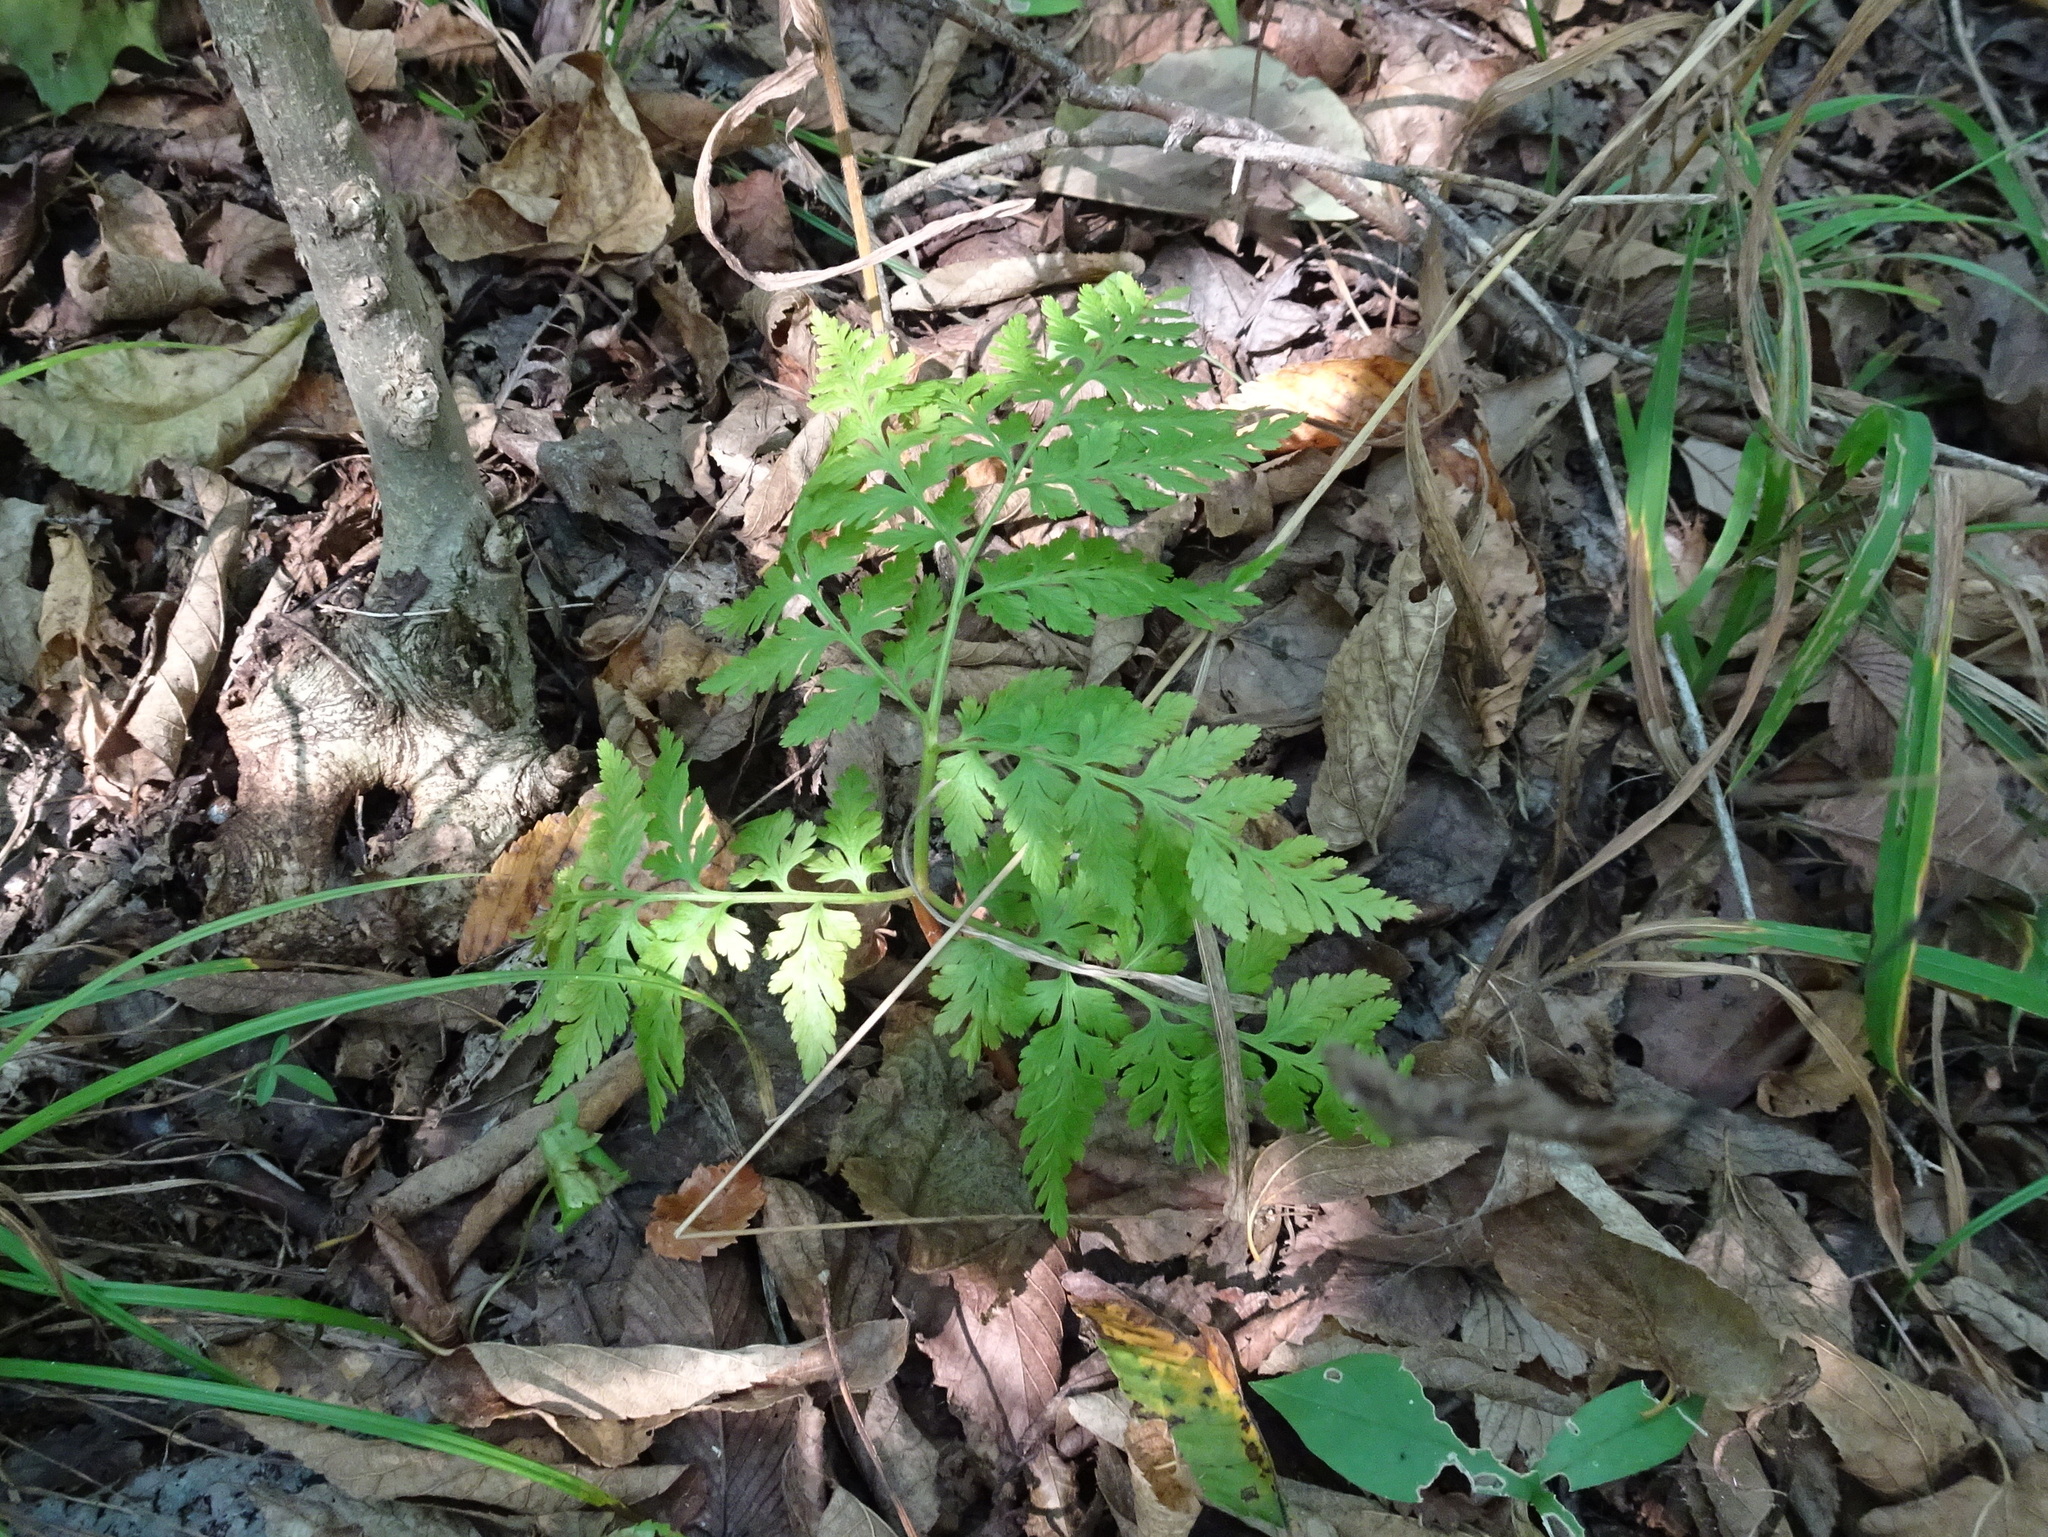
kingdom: Plantae
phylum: Tracheophyta
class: Polypodiopsida
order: Ophioglossales
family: Ophioglossaceae
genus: Botrypus
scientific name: Botrypus virginianus
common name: Common grapefern
